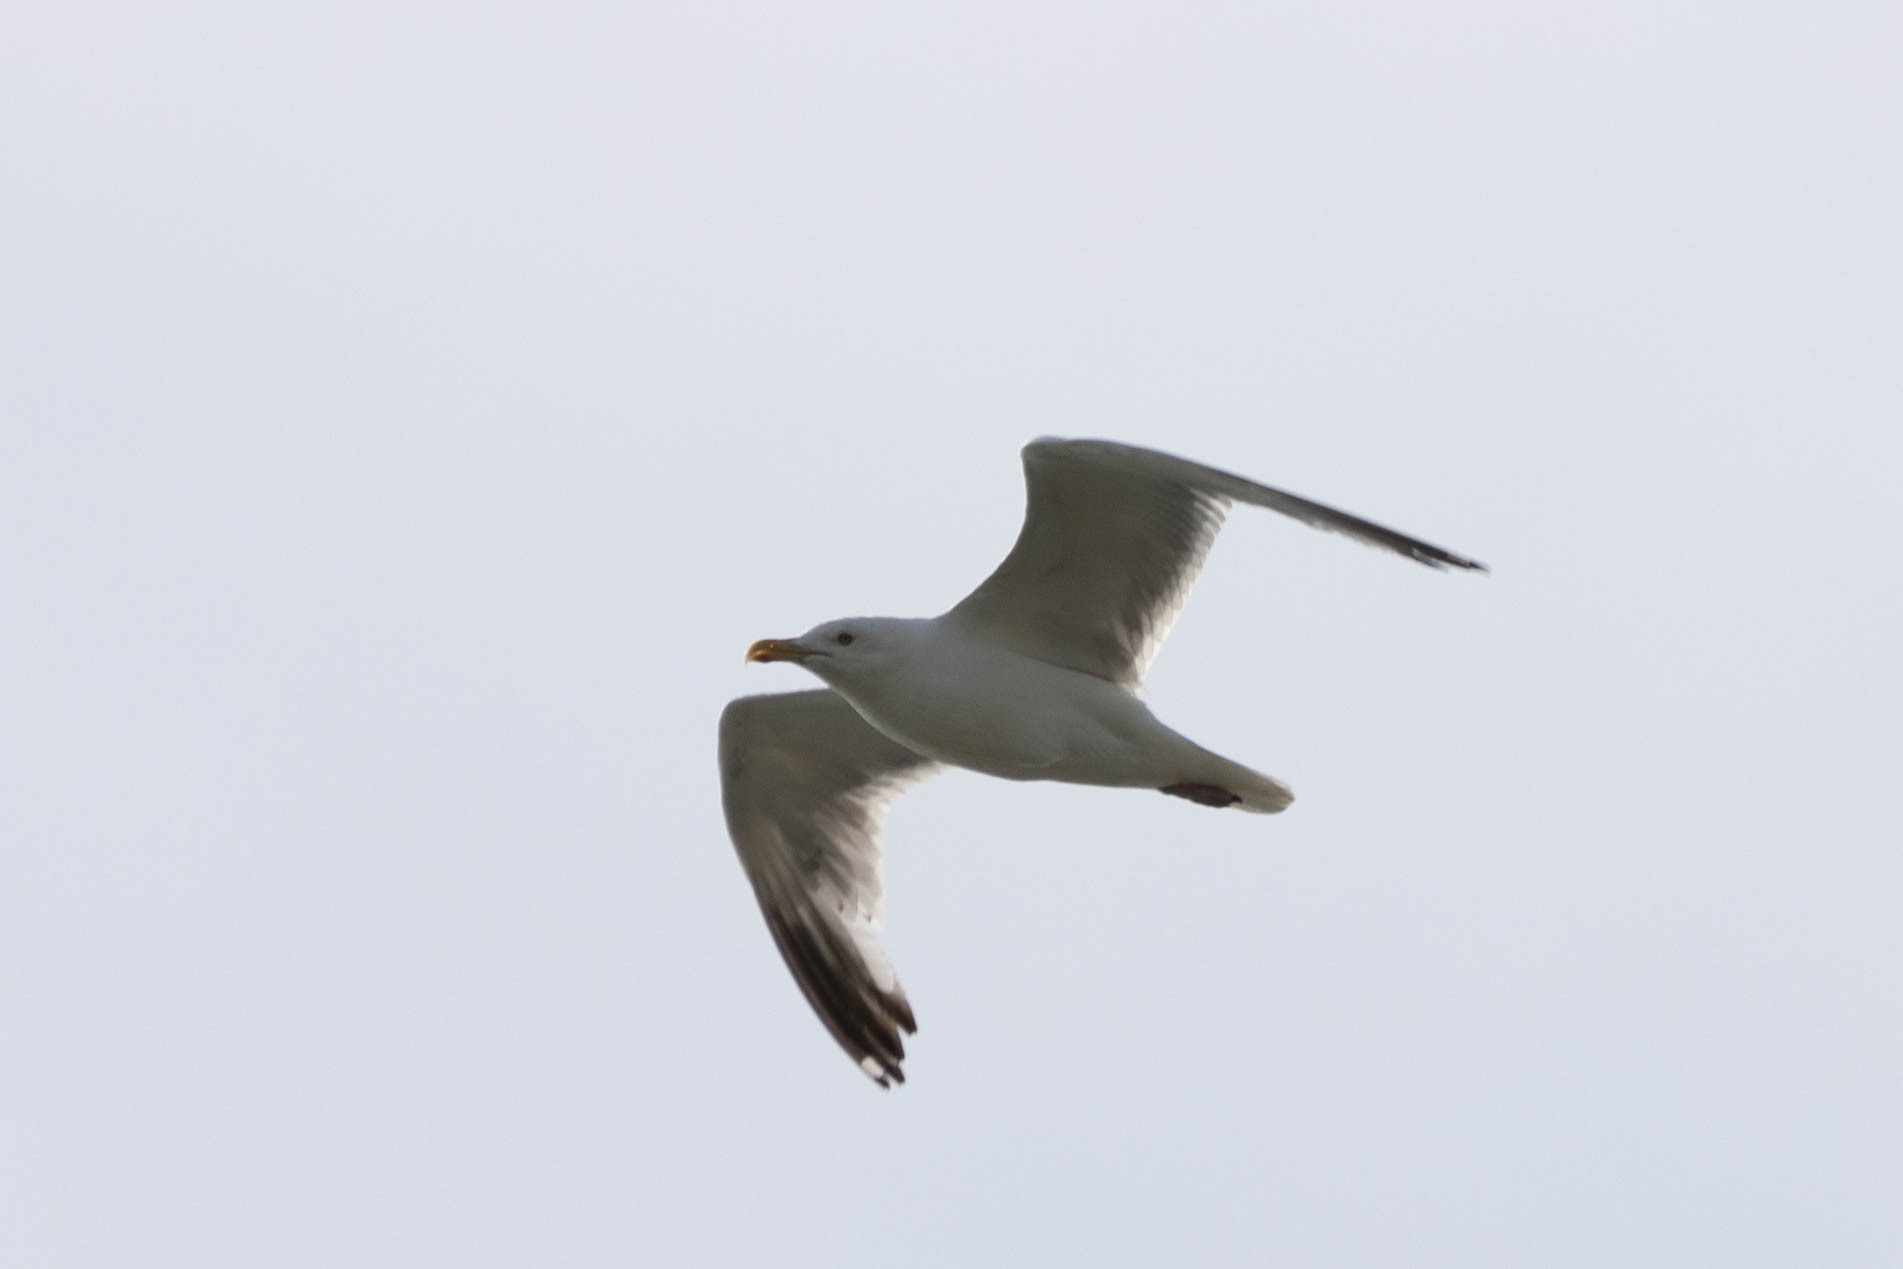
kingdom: Animalia
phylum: Chordata
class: Aves
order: Charadriiformes
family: Laridae
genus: Larus
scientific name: Larus argentatus
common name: Herring gull
